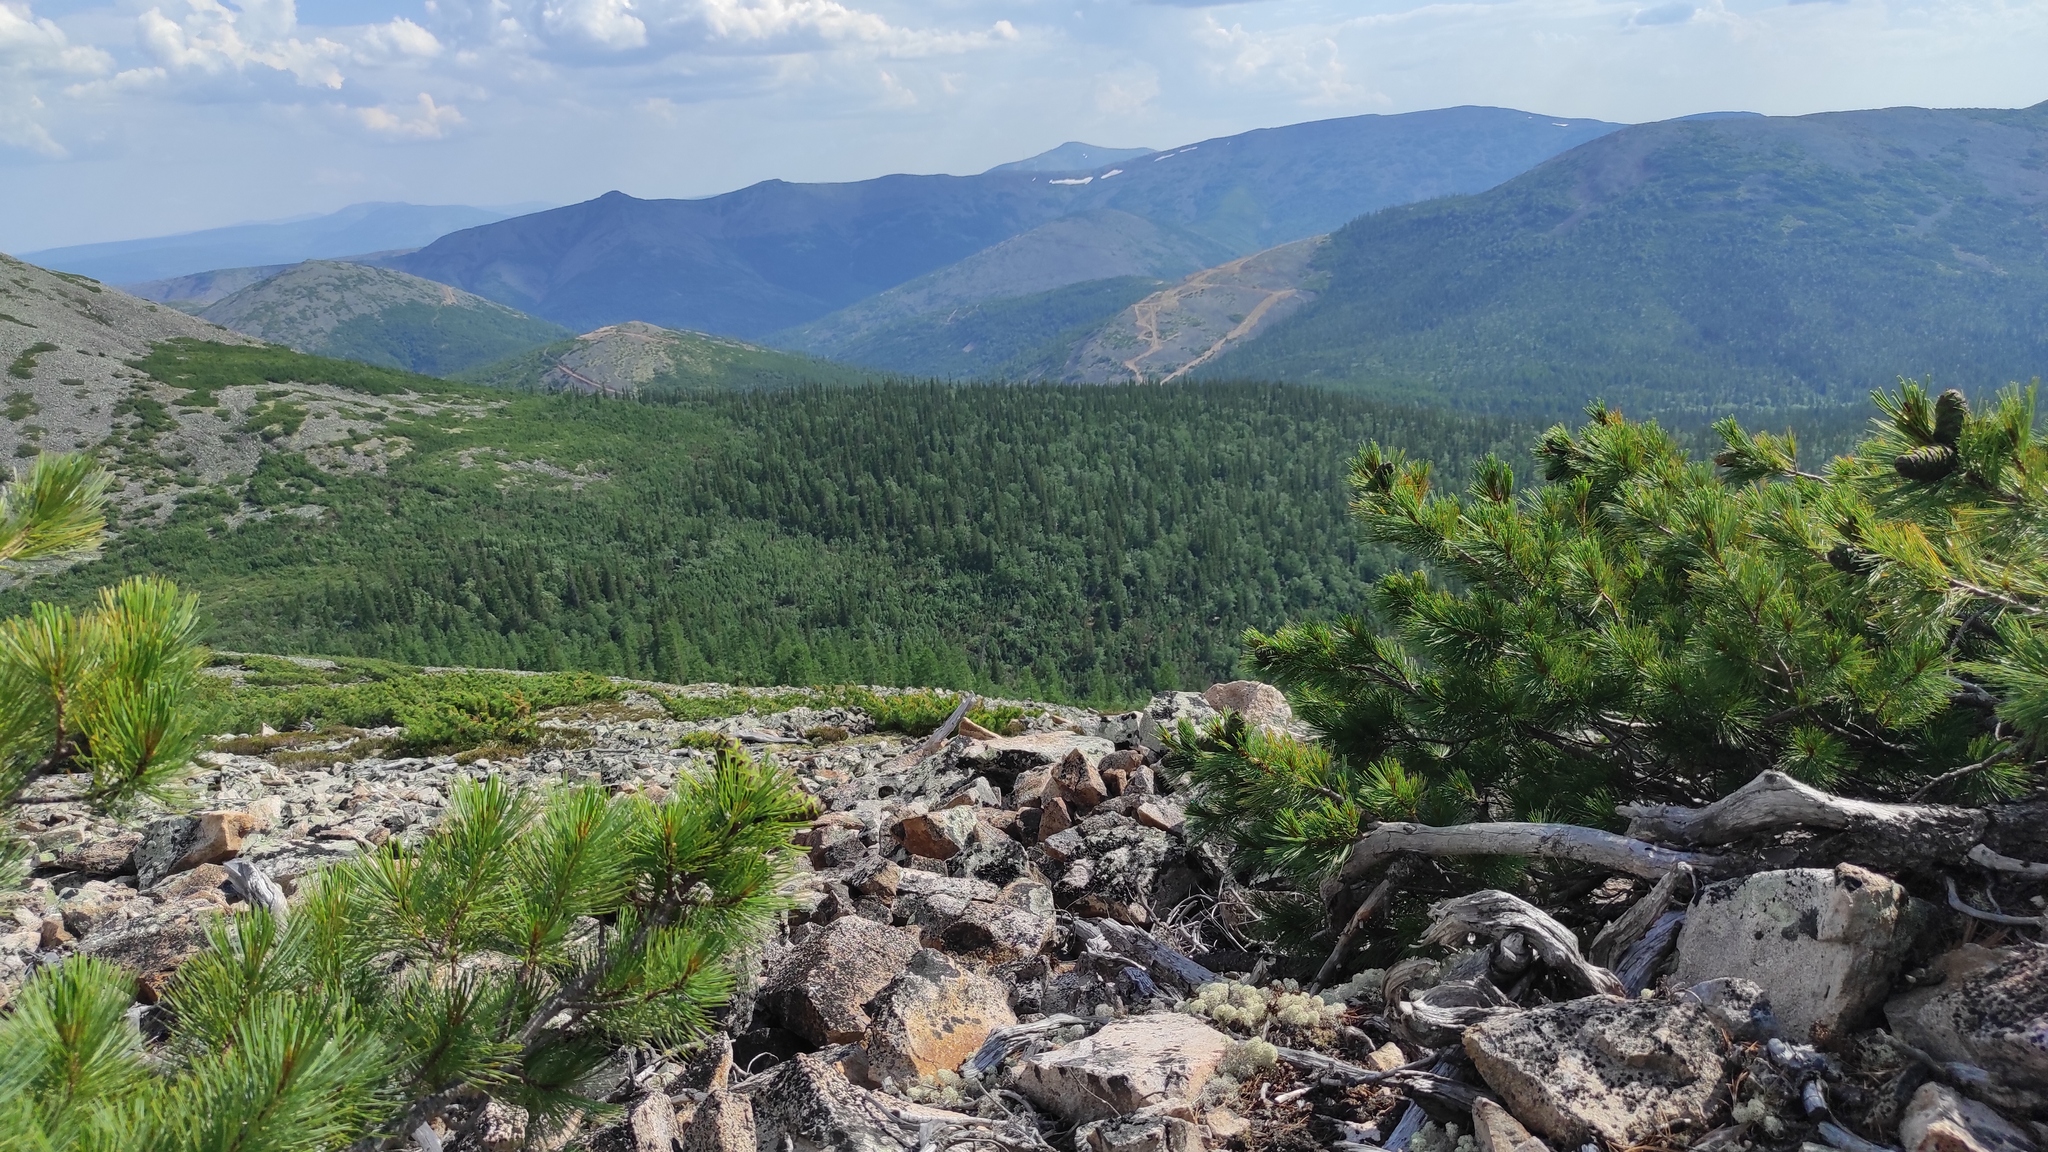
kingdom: Plantae
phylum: Tracheophyta
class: Pinopsida
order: Pinales
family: Pinaceae
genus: Pinus
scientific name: Pinus pumila
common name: Dwarf siberian pine
